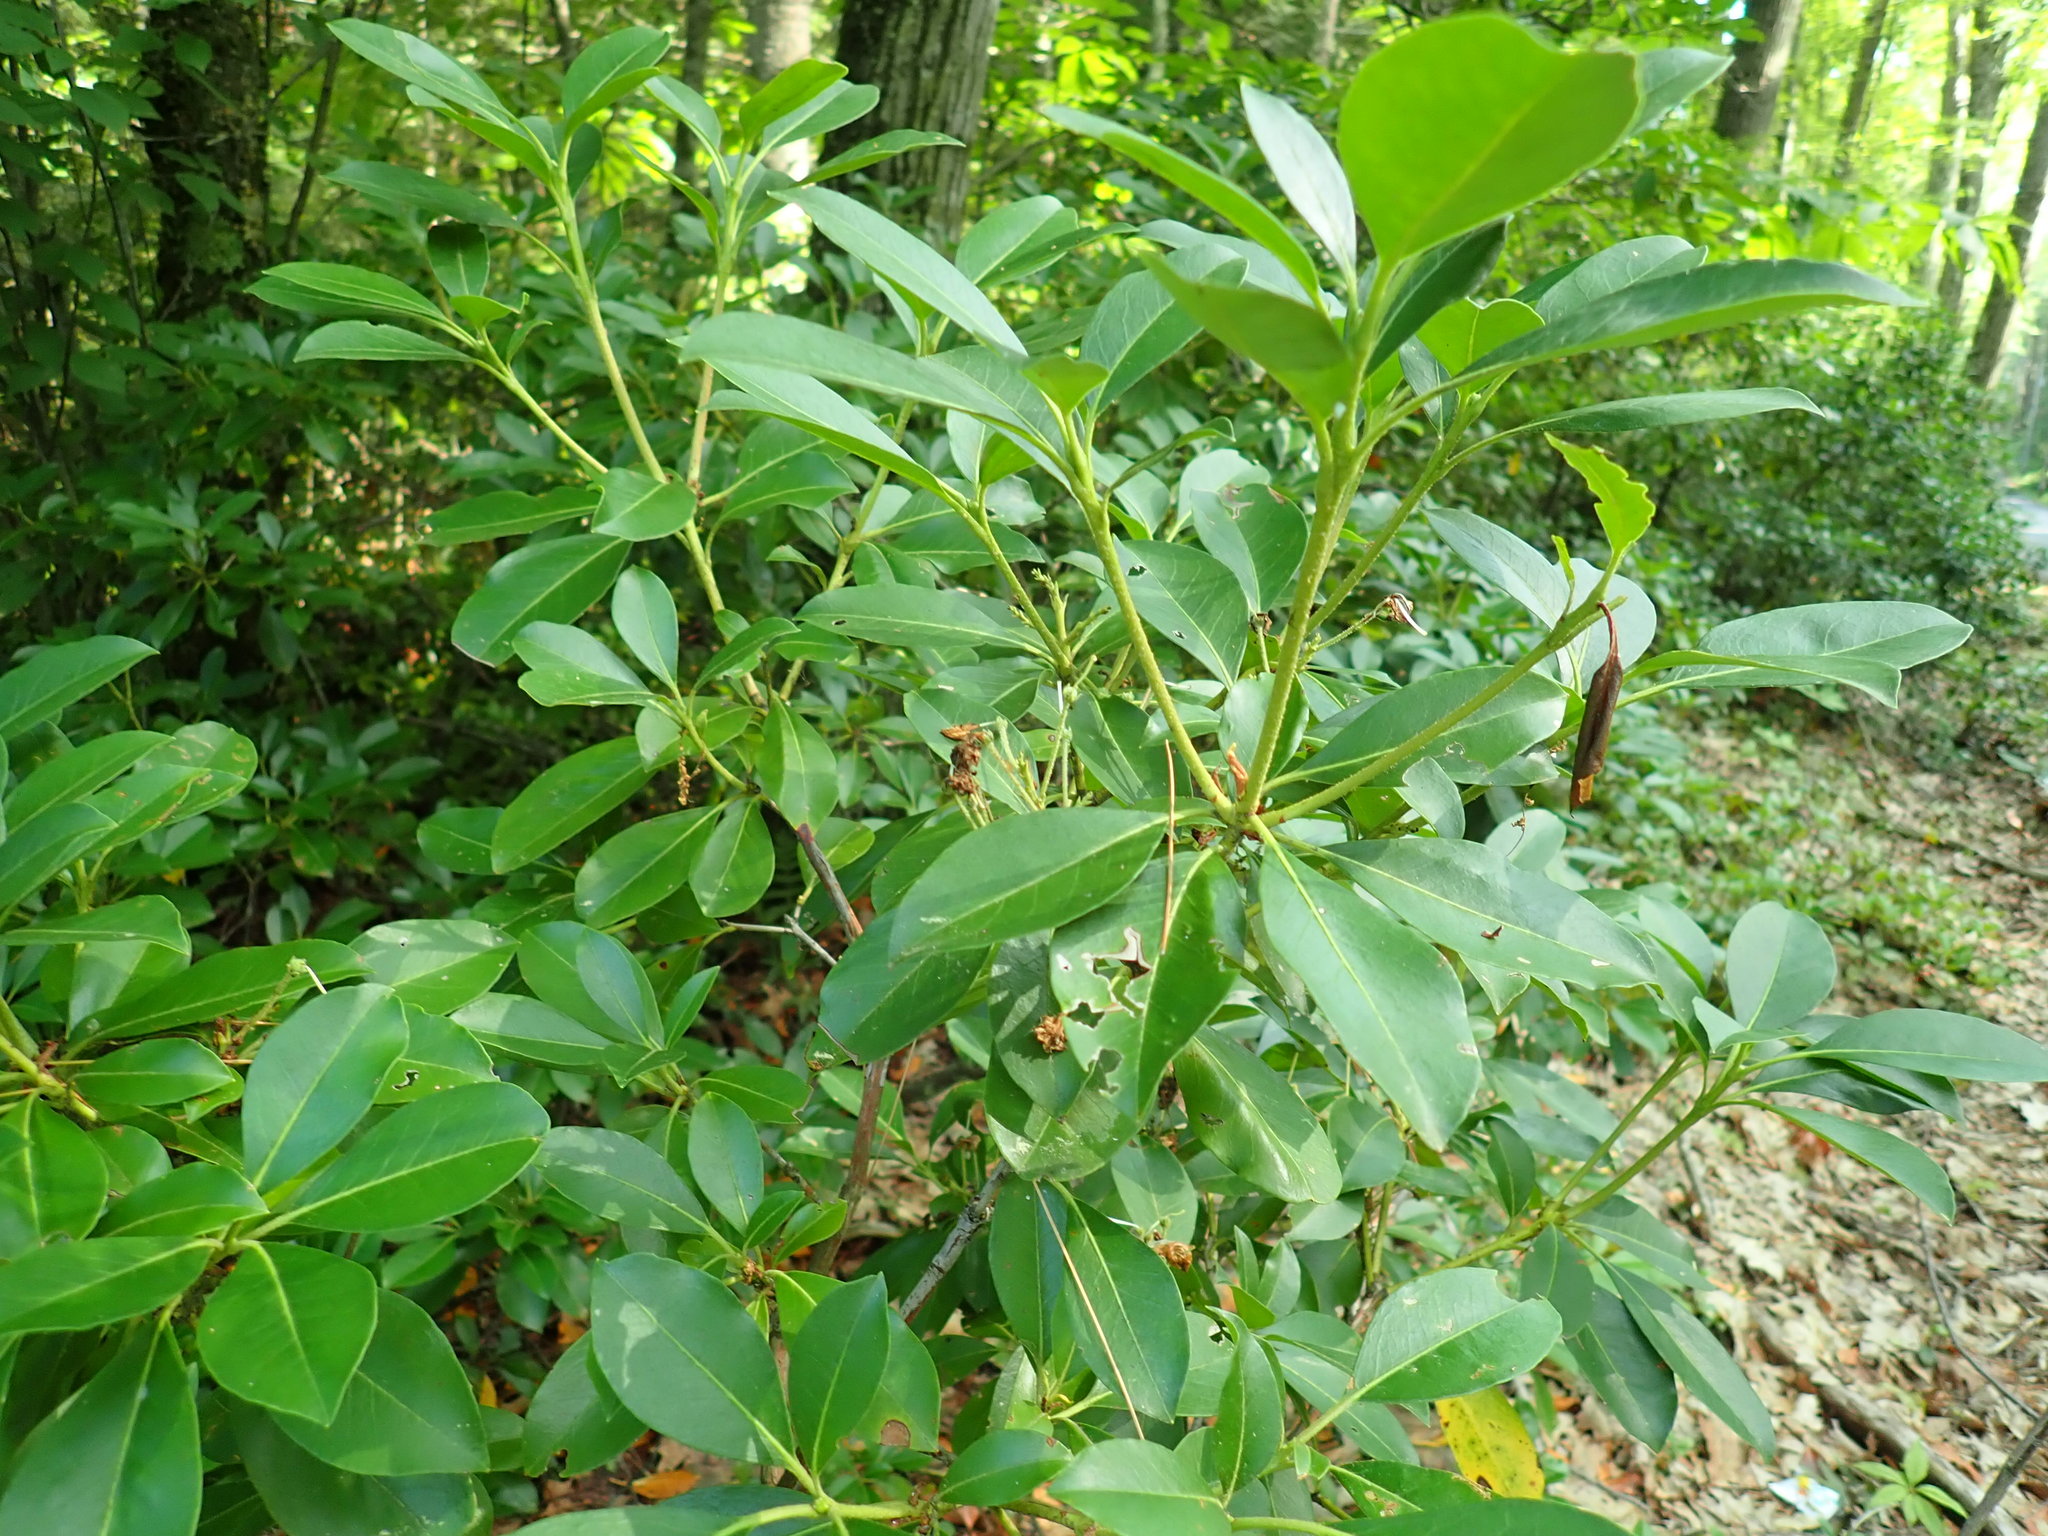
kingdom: Plantae
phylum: Tracheophyta
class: Magnoliopsida
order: Ericales
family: Ericaceae
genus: Kalmia
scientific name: Kalmia latifolia
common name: Mountain-laurel
